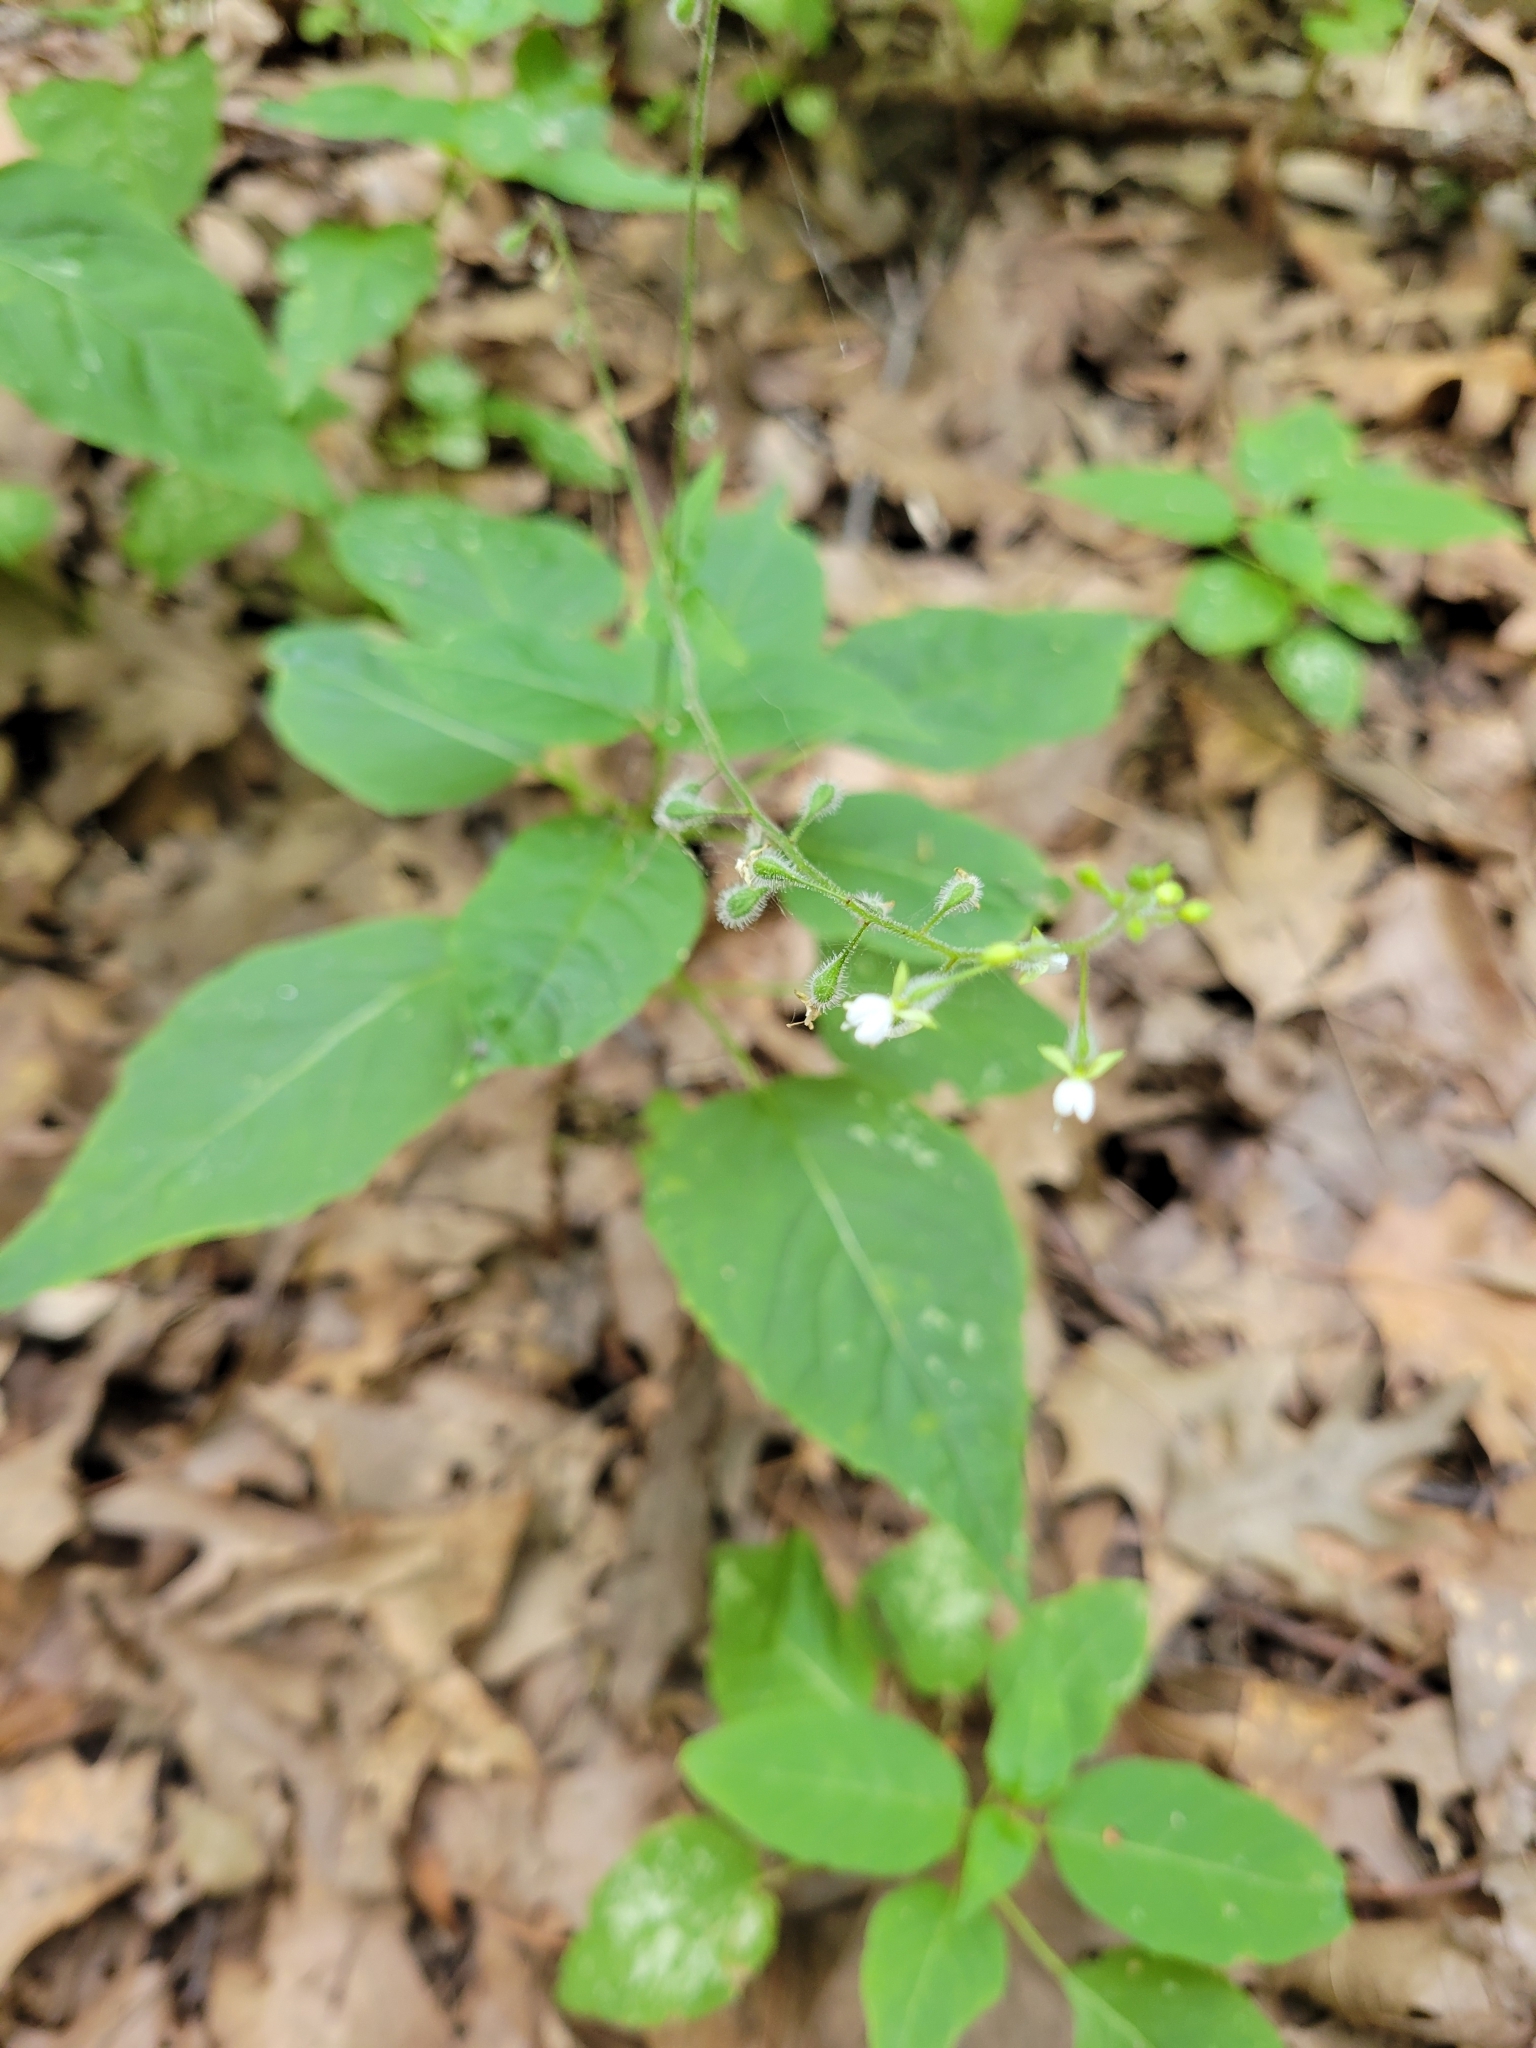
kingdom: Plantae
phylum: Tracheophyta
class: Magnoliopsida
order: Myrtales
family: Onagraceae
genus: Circaea
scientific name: Circaea canadensis
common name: Broad-leaved enchanter's nightshade
